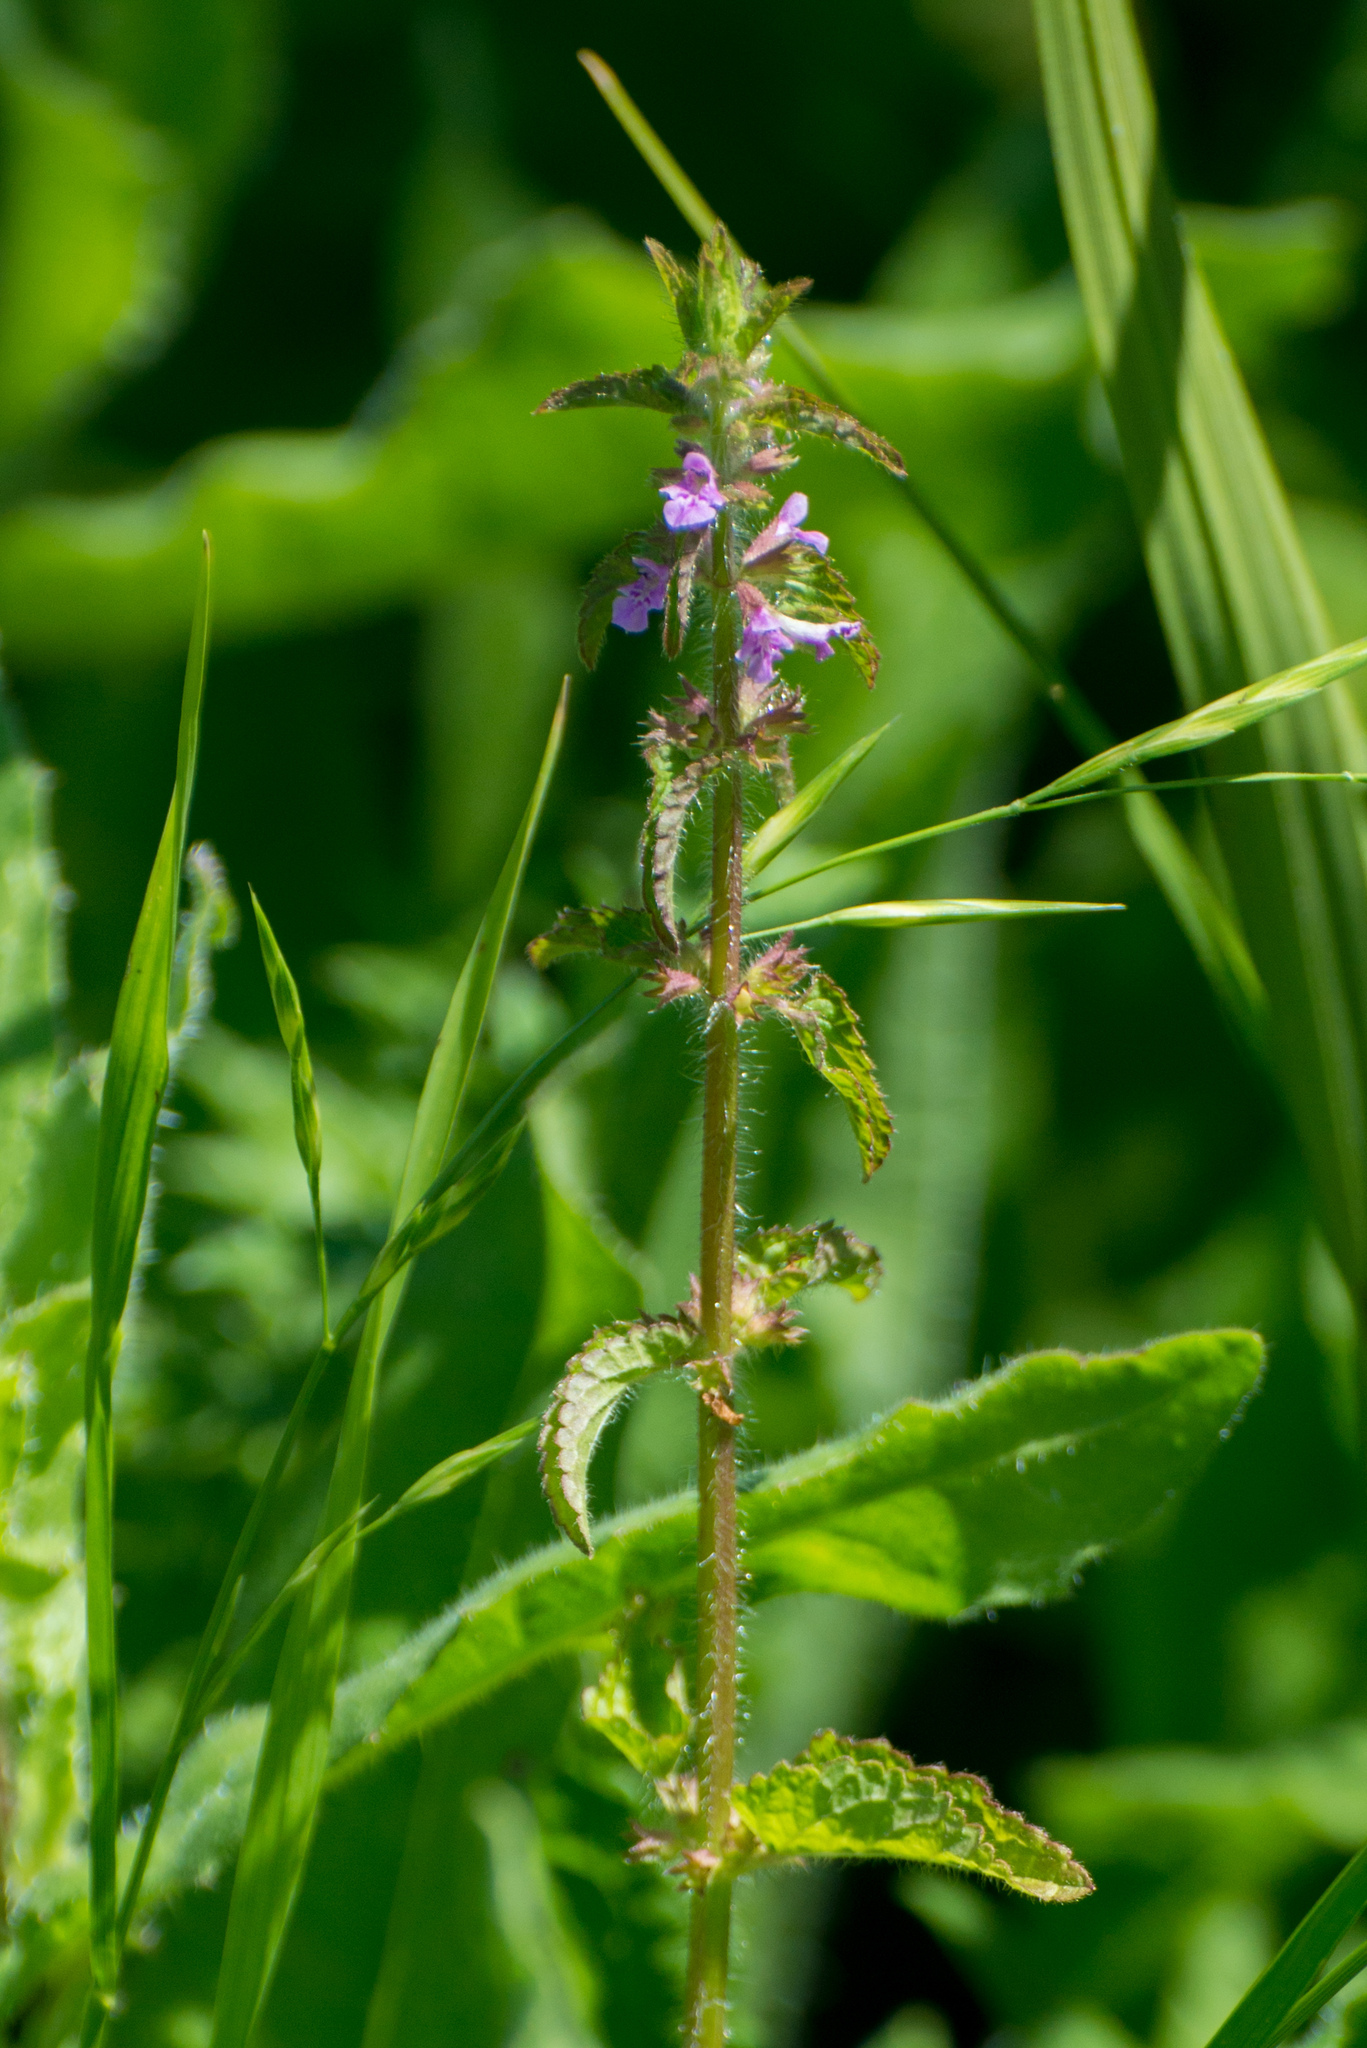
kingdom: Plantae
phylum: Tracheophyta
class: Magnoliopsida
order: Lamiales
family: Lamiaceae
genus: Stachys
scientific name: Stachys gilliesii
